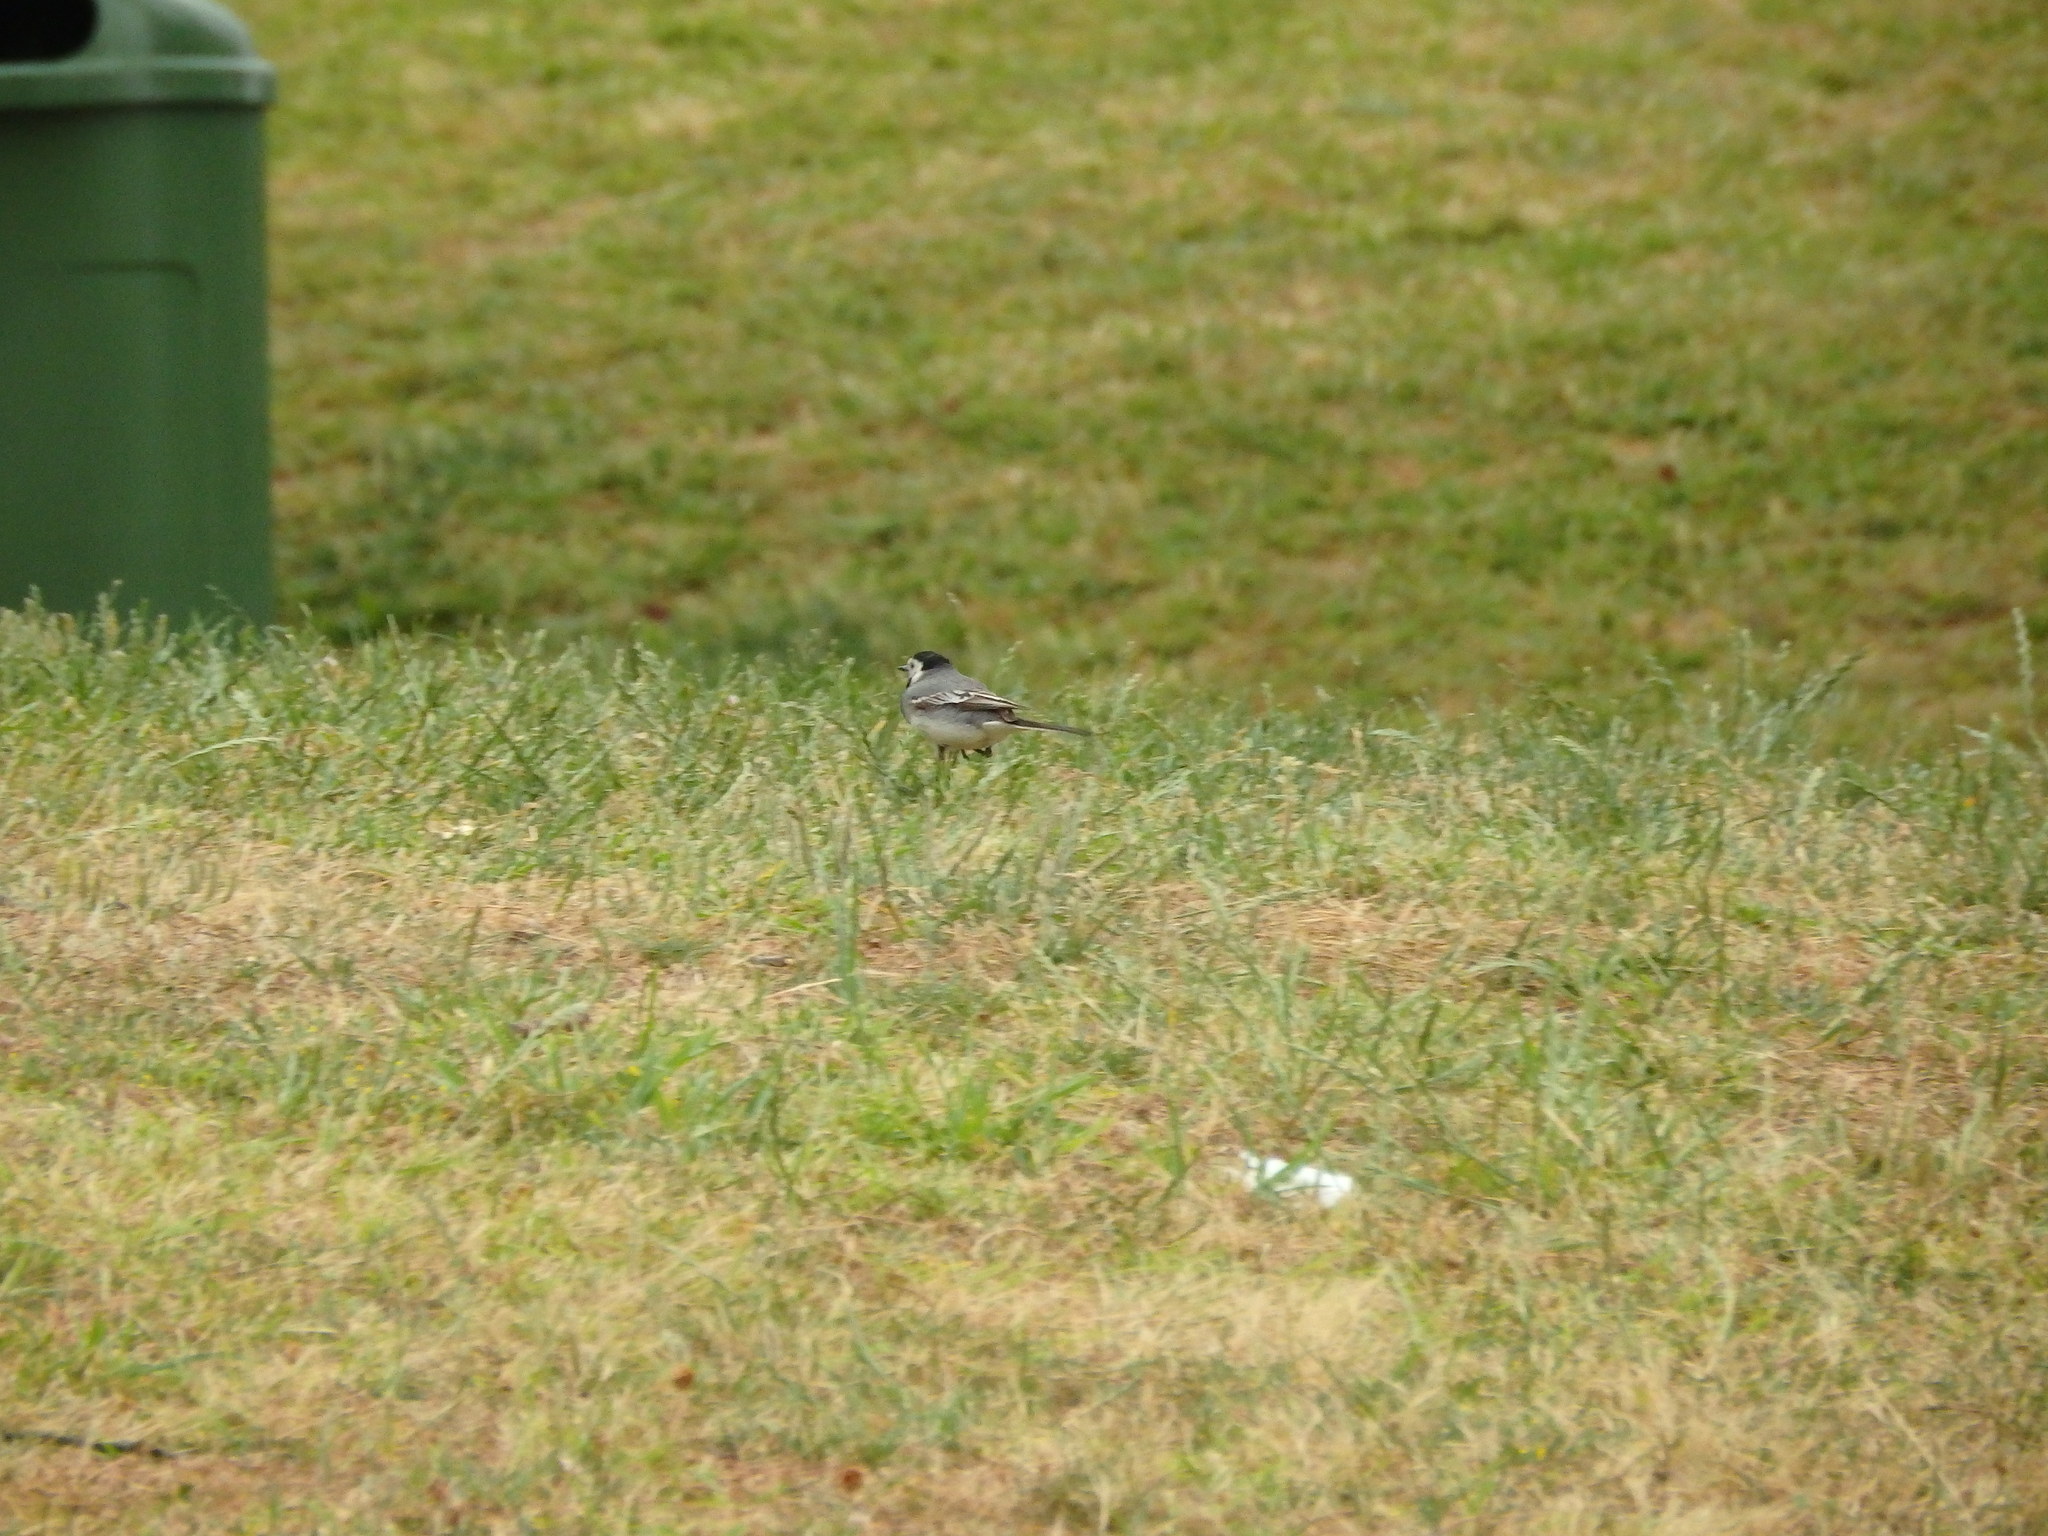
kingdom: Animalia
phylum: Chordata
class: Aves
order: Passeriformes
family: Motacillidae
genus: Motacilla
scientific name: Motacilla alba
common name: White wagtail
